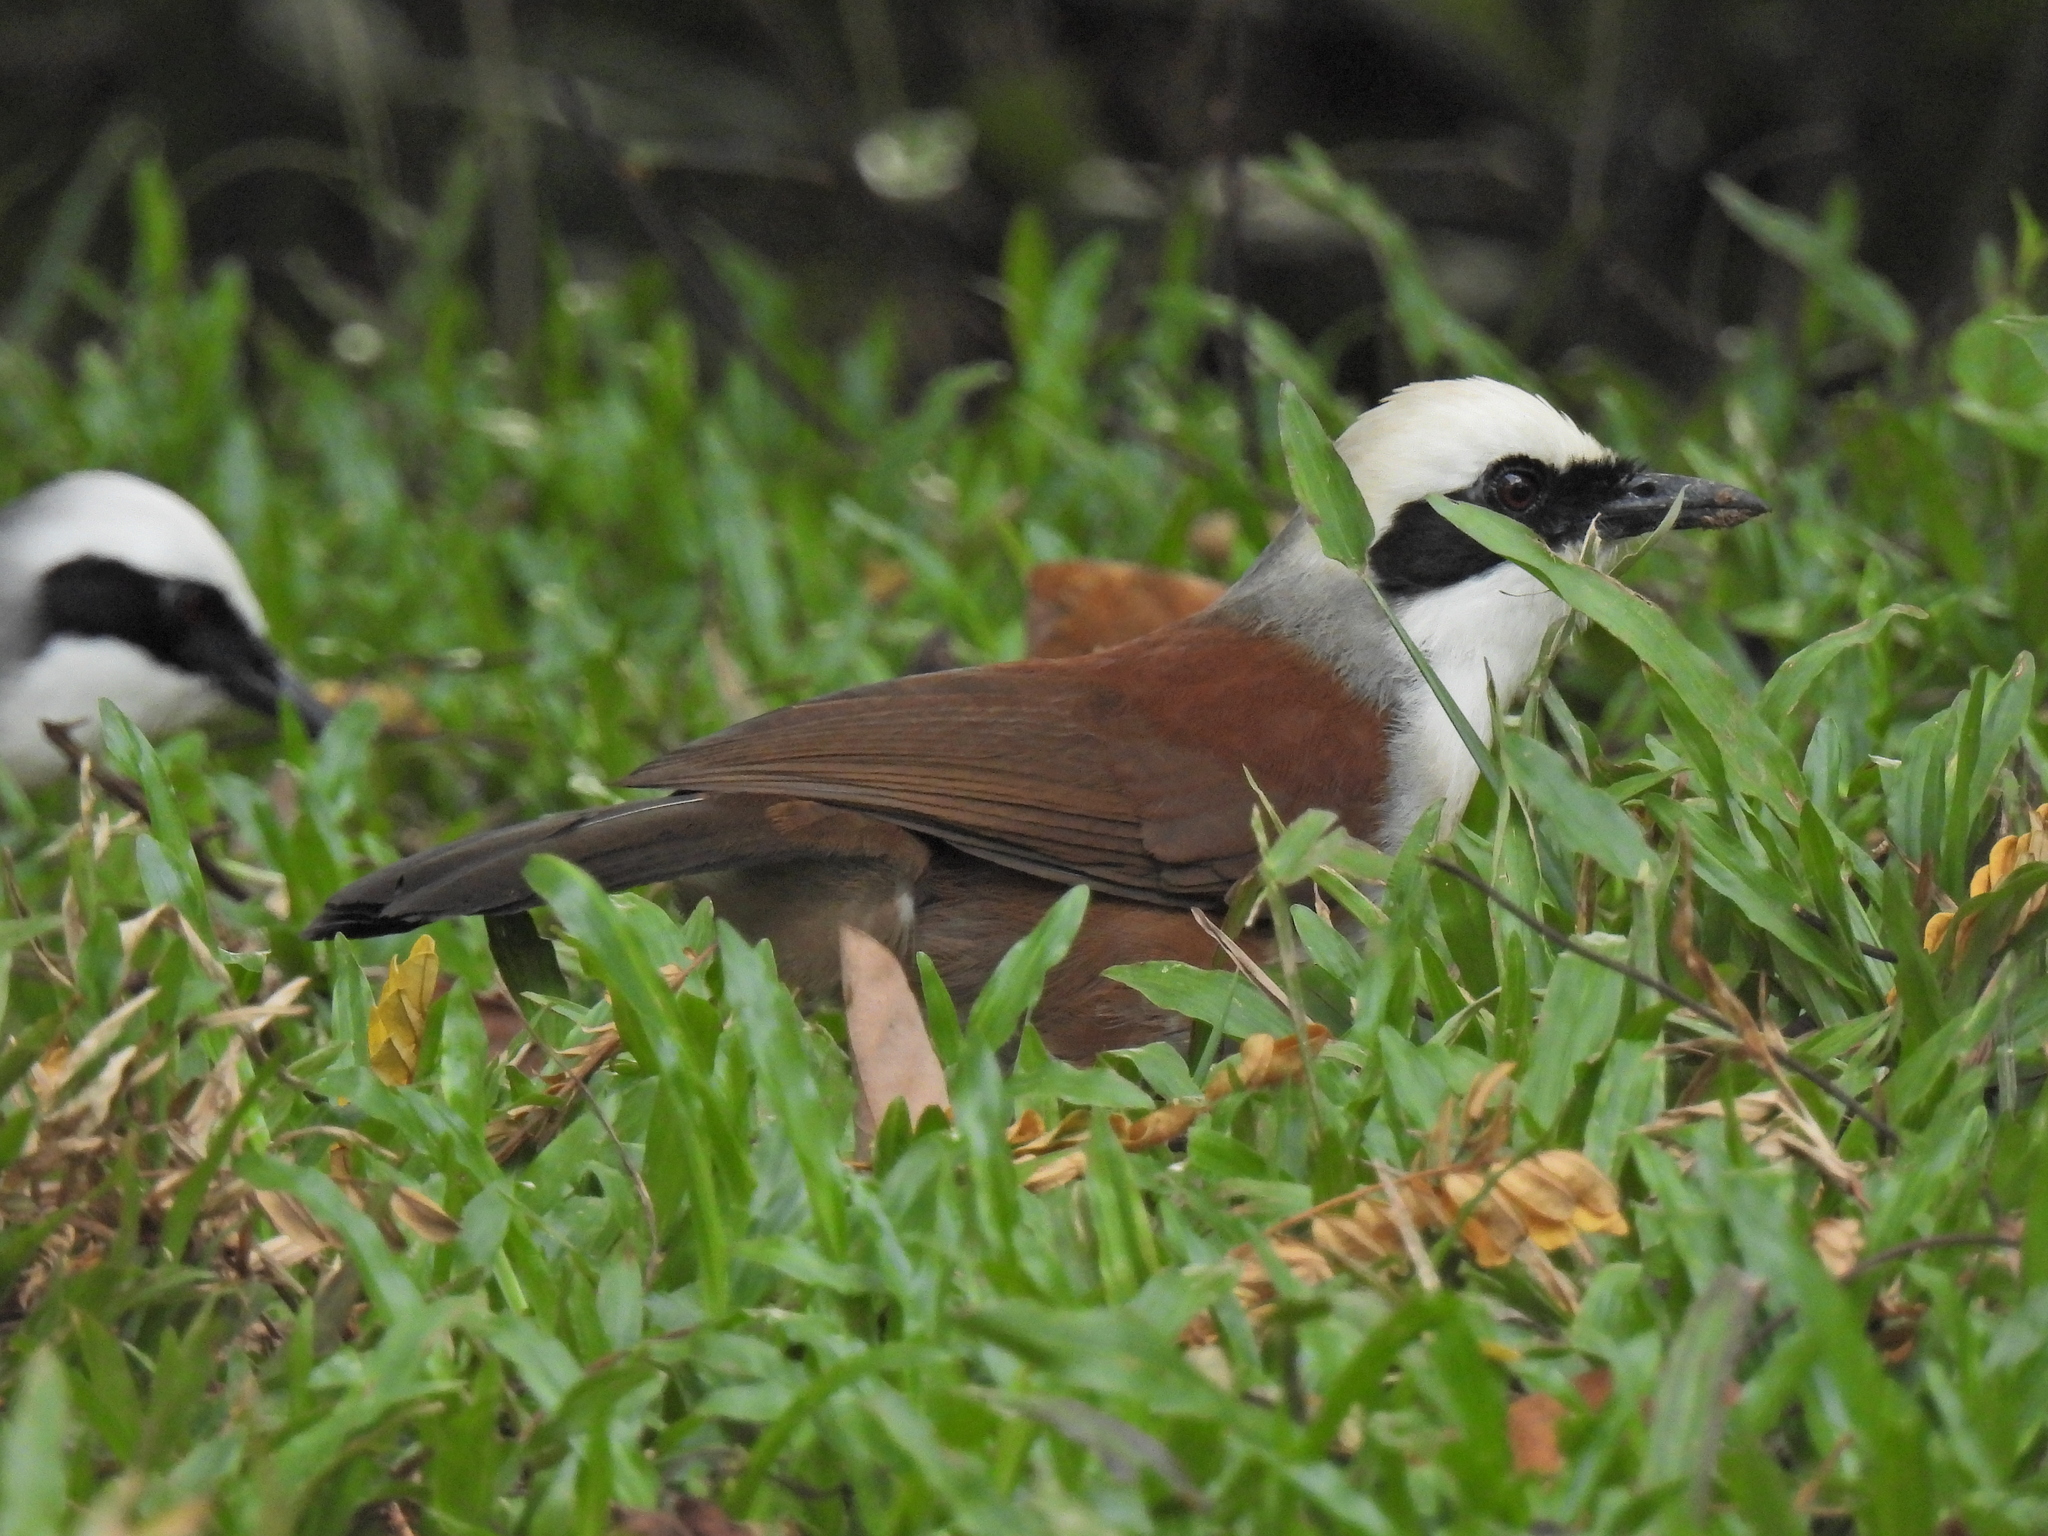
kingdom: Animalia
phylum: Chordata
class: Aves
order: Passeriformes
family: Leiothrichidae
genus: Garrulax
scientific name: Garrulax leucolophus
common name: White-crested laughingthrush
